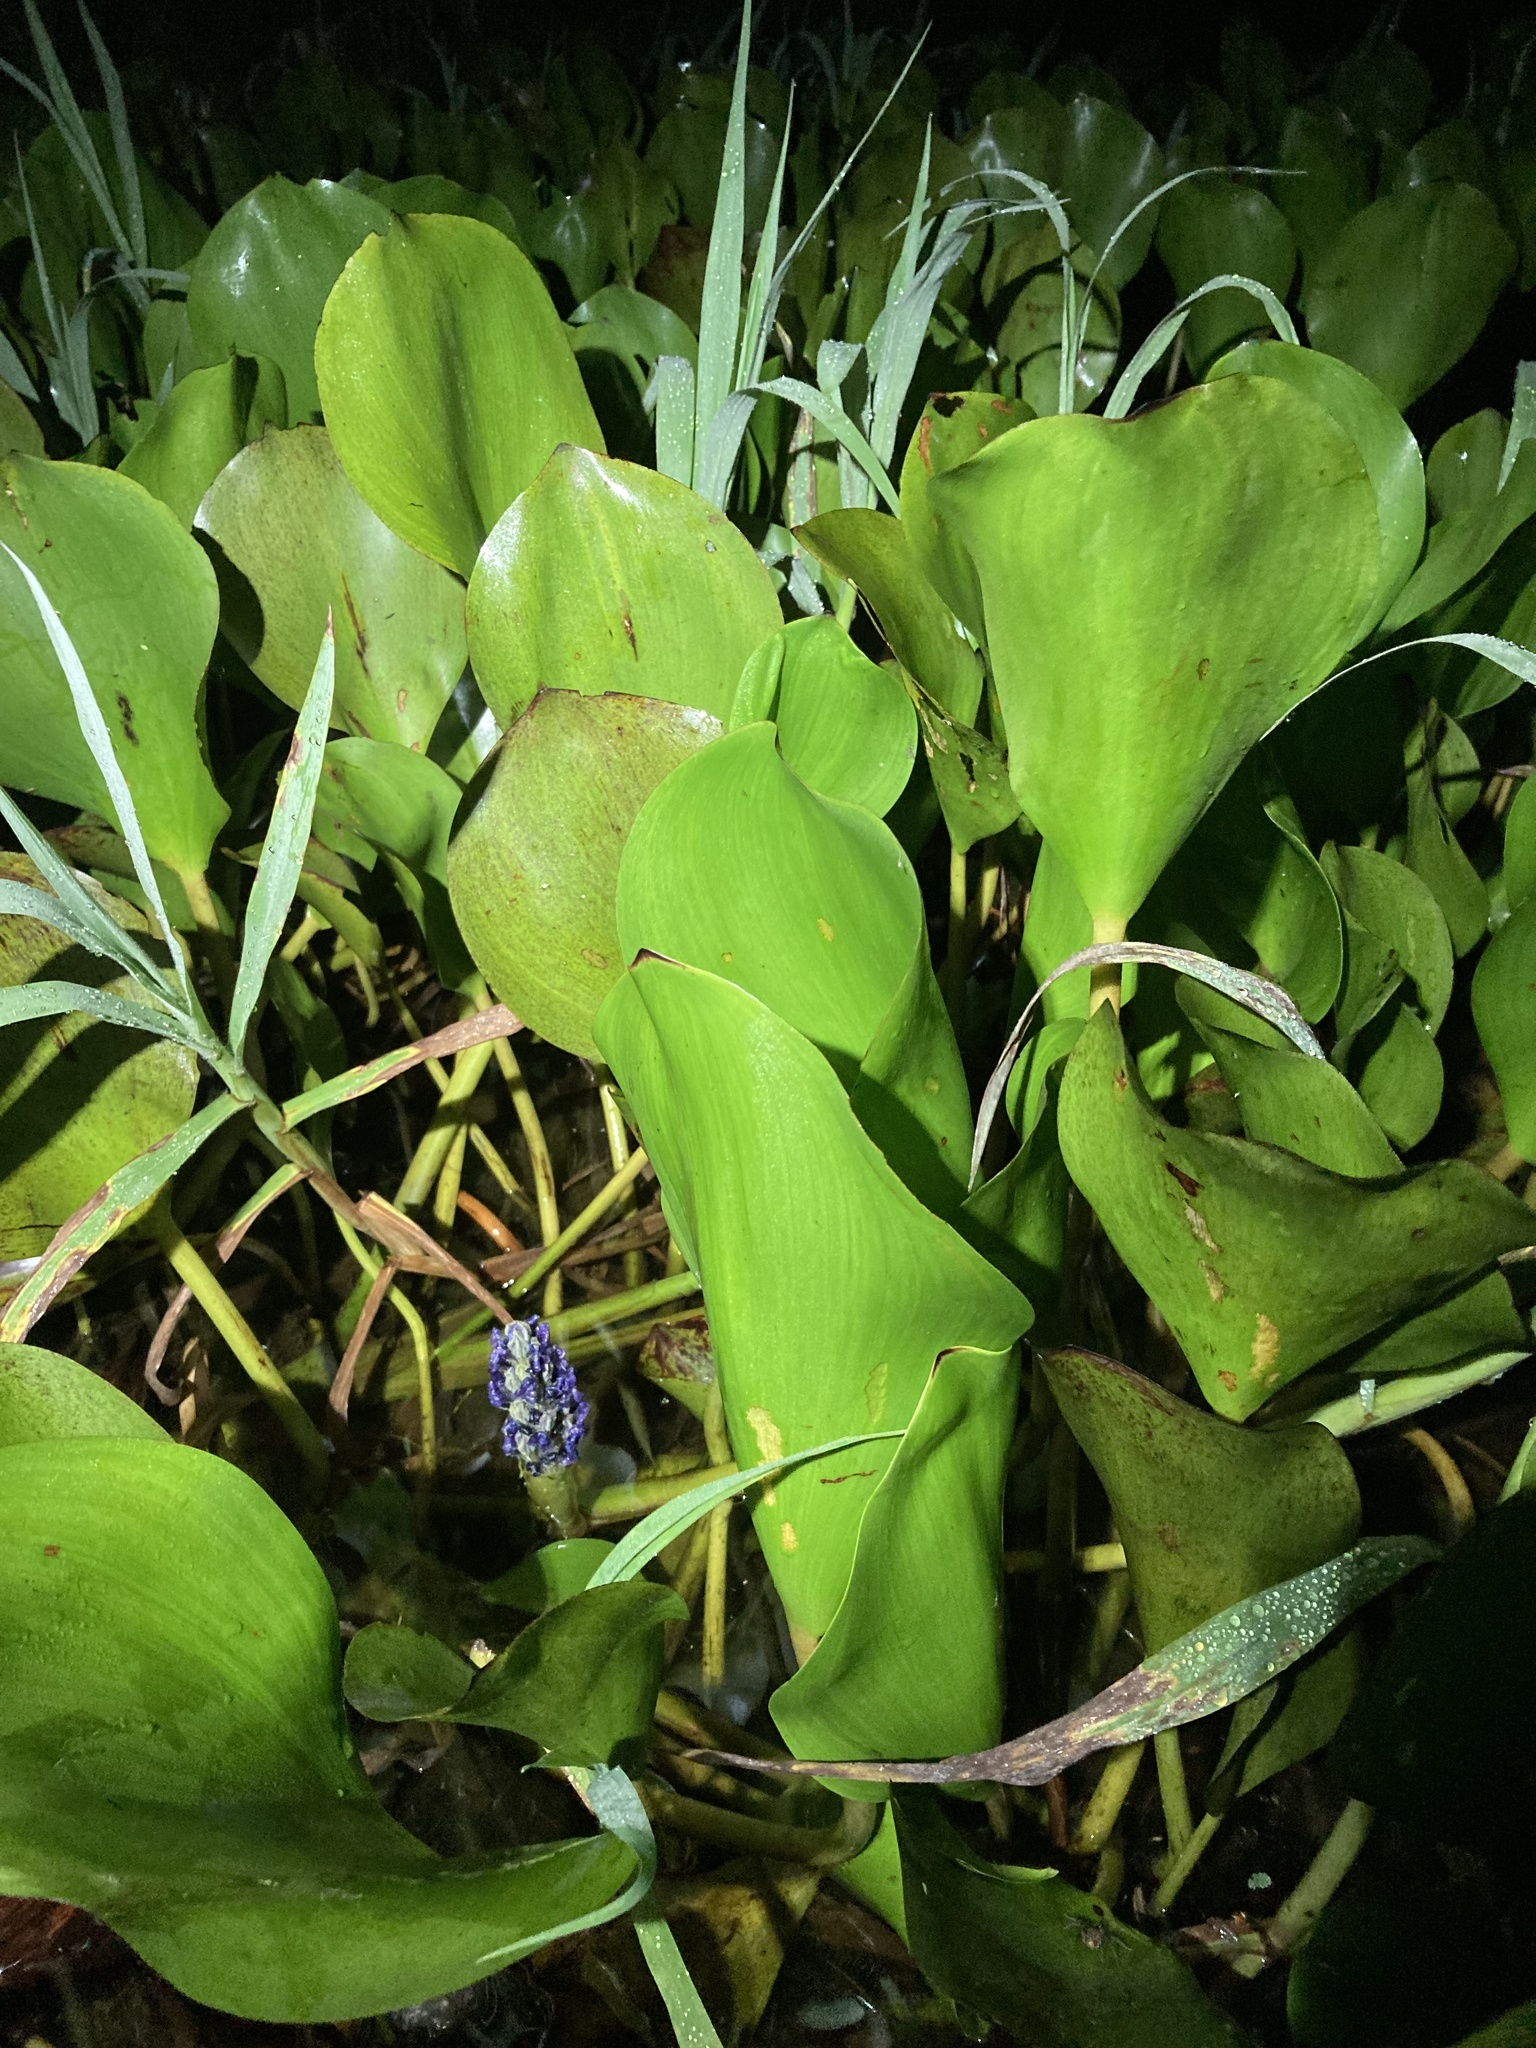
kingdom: Plantae
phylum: Tracheophyta
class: Liliopsida
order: Commelinales
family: Pontederiaceae
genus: Pontederia
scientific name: Pontederia cordata
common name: Pickerelweed
